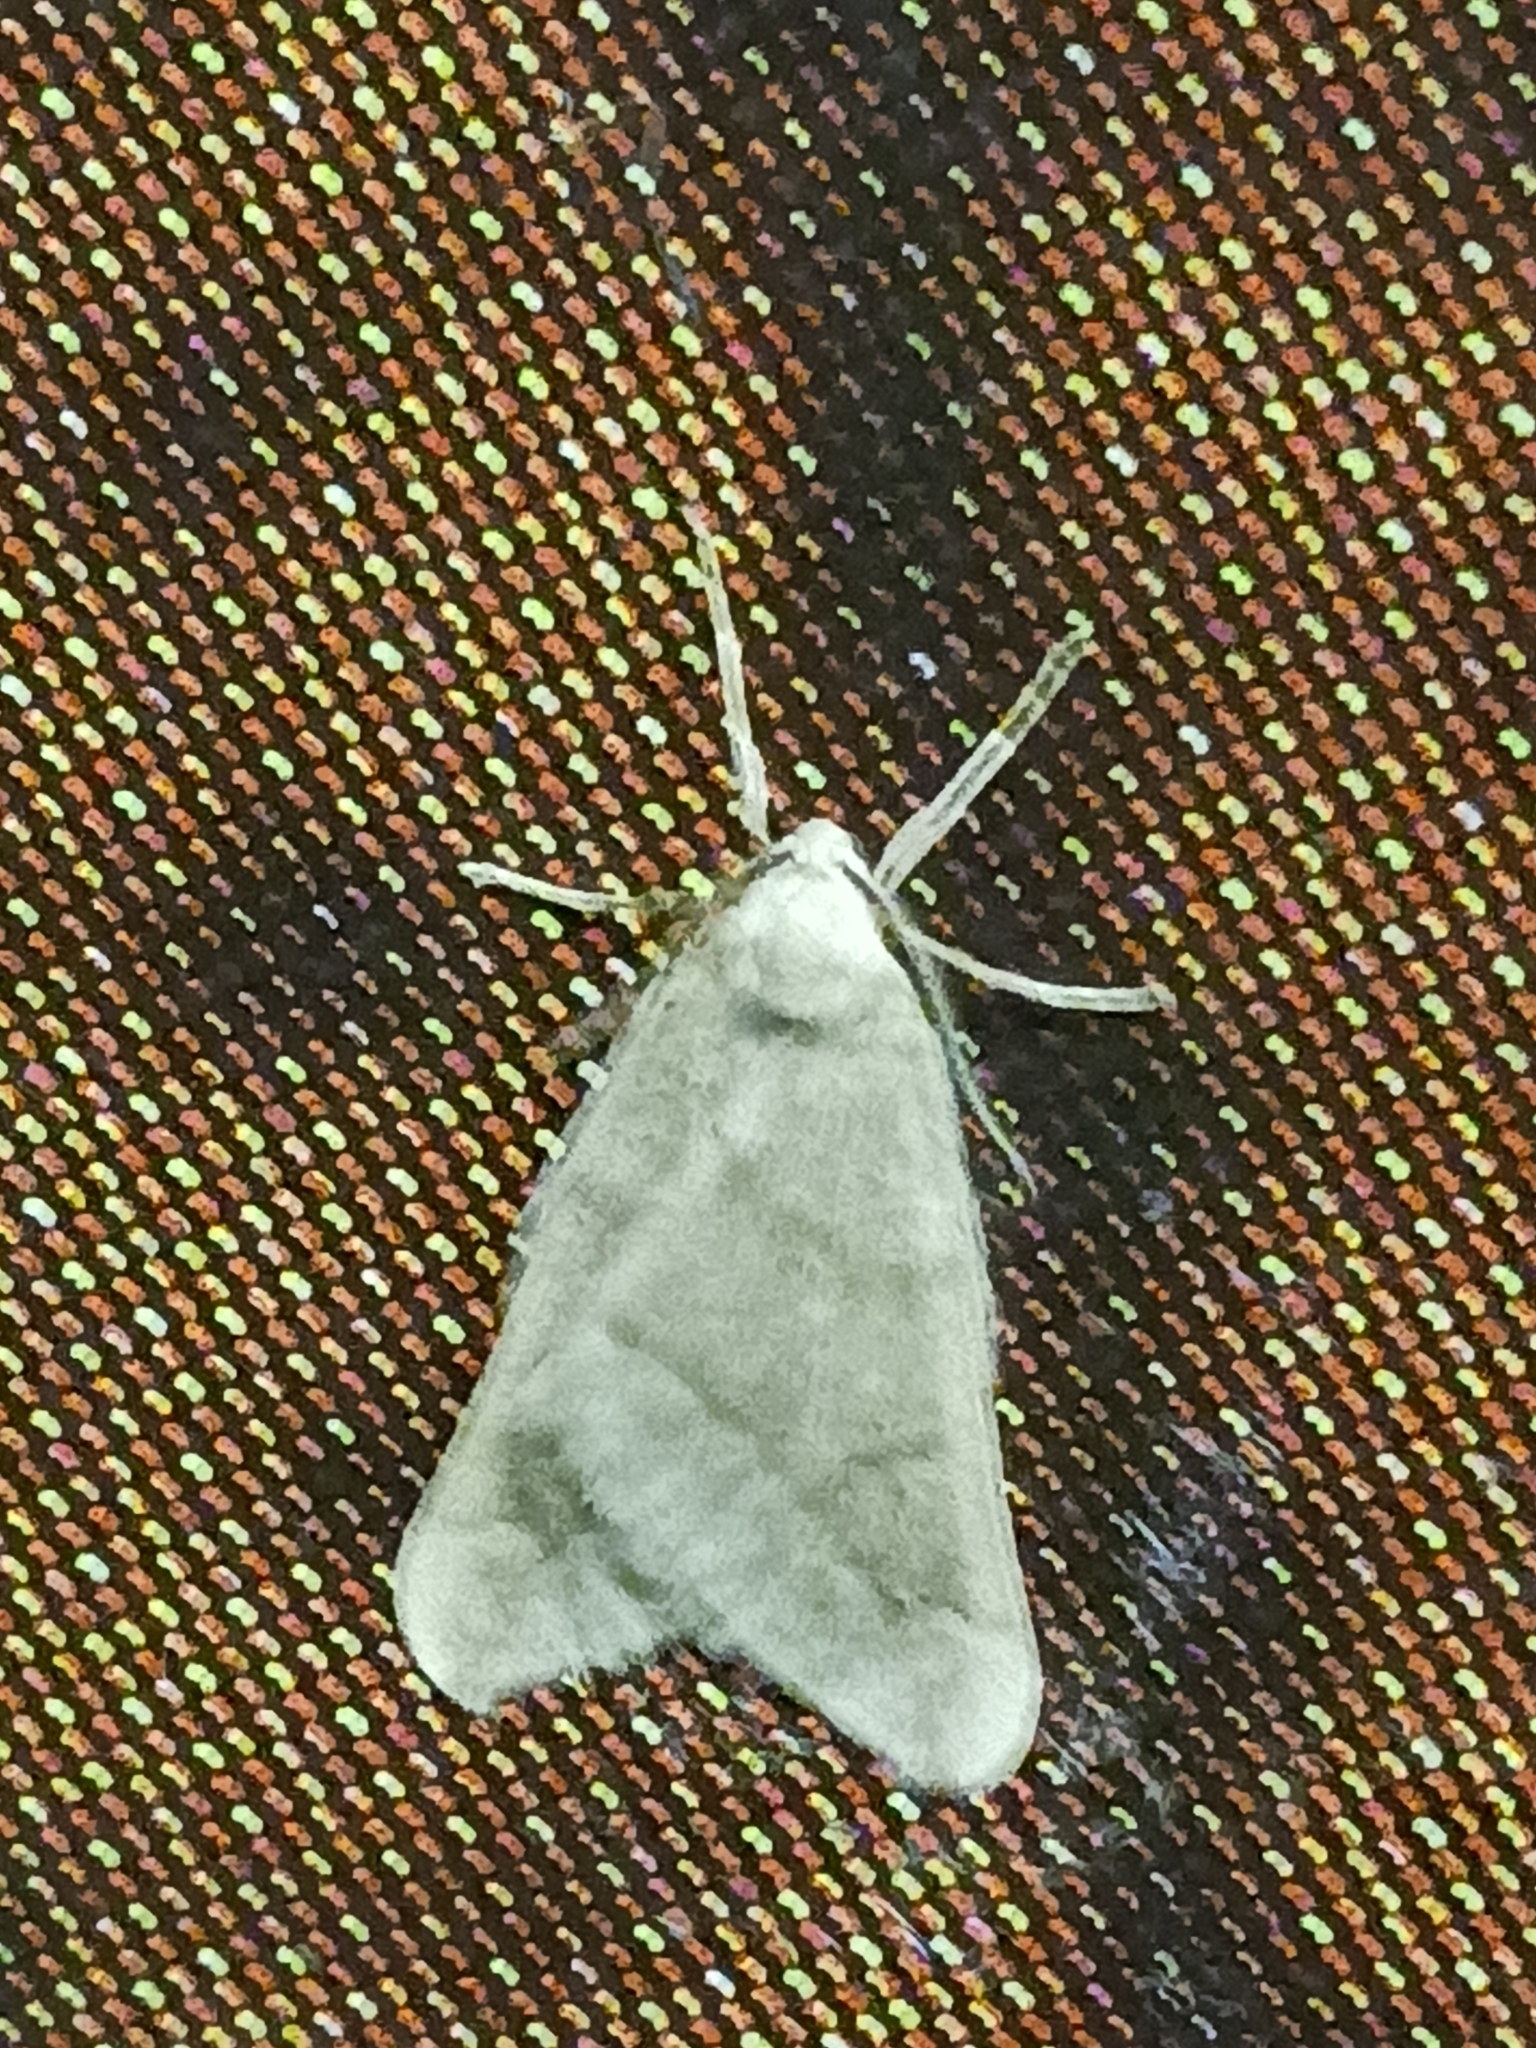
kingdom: Animalia
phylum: Arthropoda
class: Insecta
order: Lepidoptera
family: Geometridae
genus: Alsophila
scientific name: Alsophila aceraria
